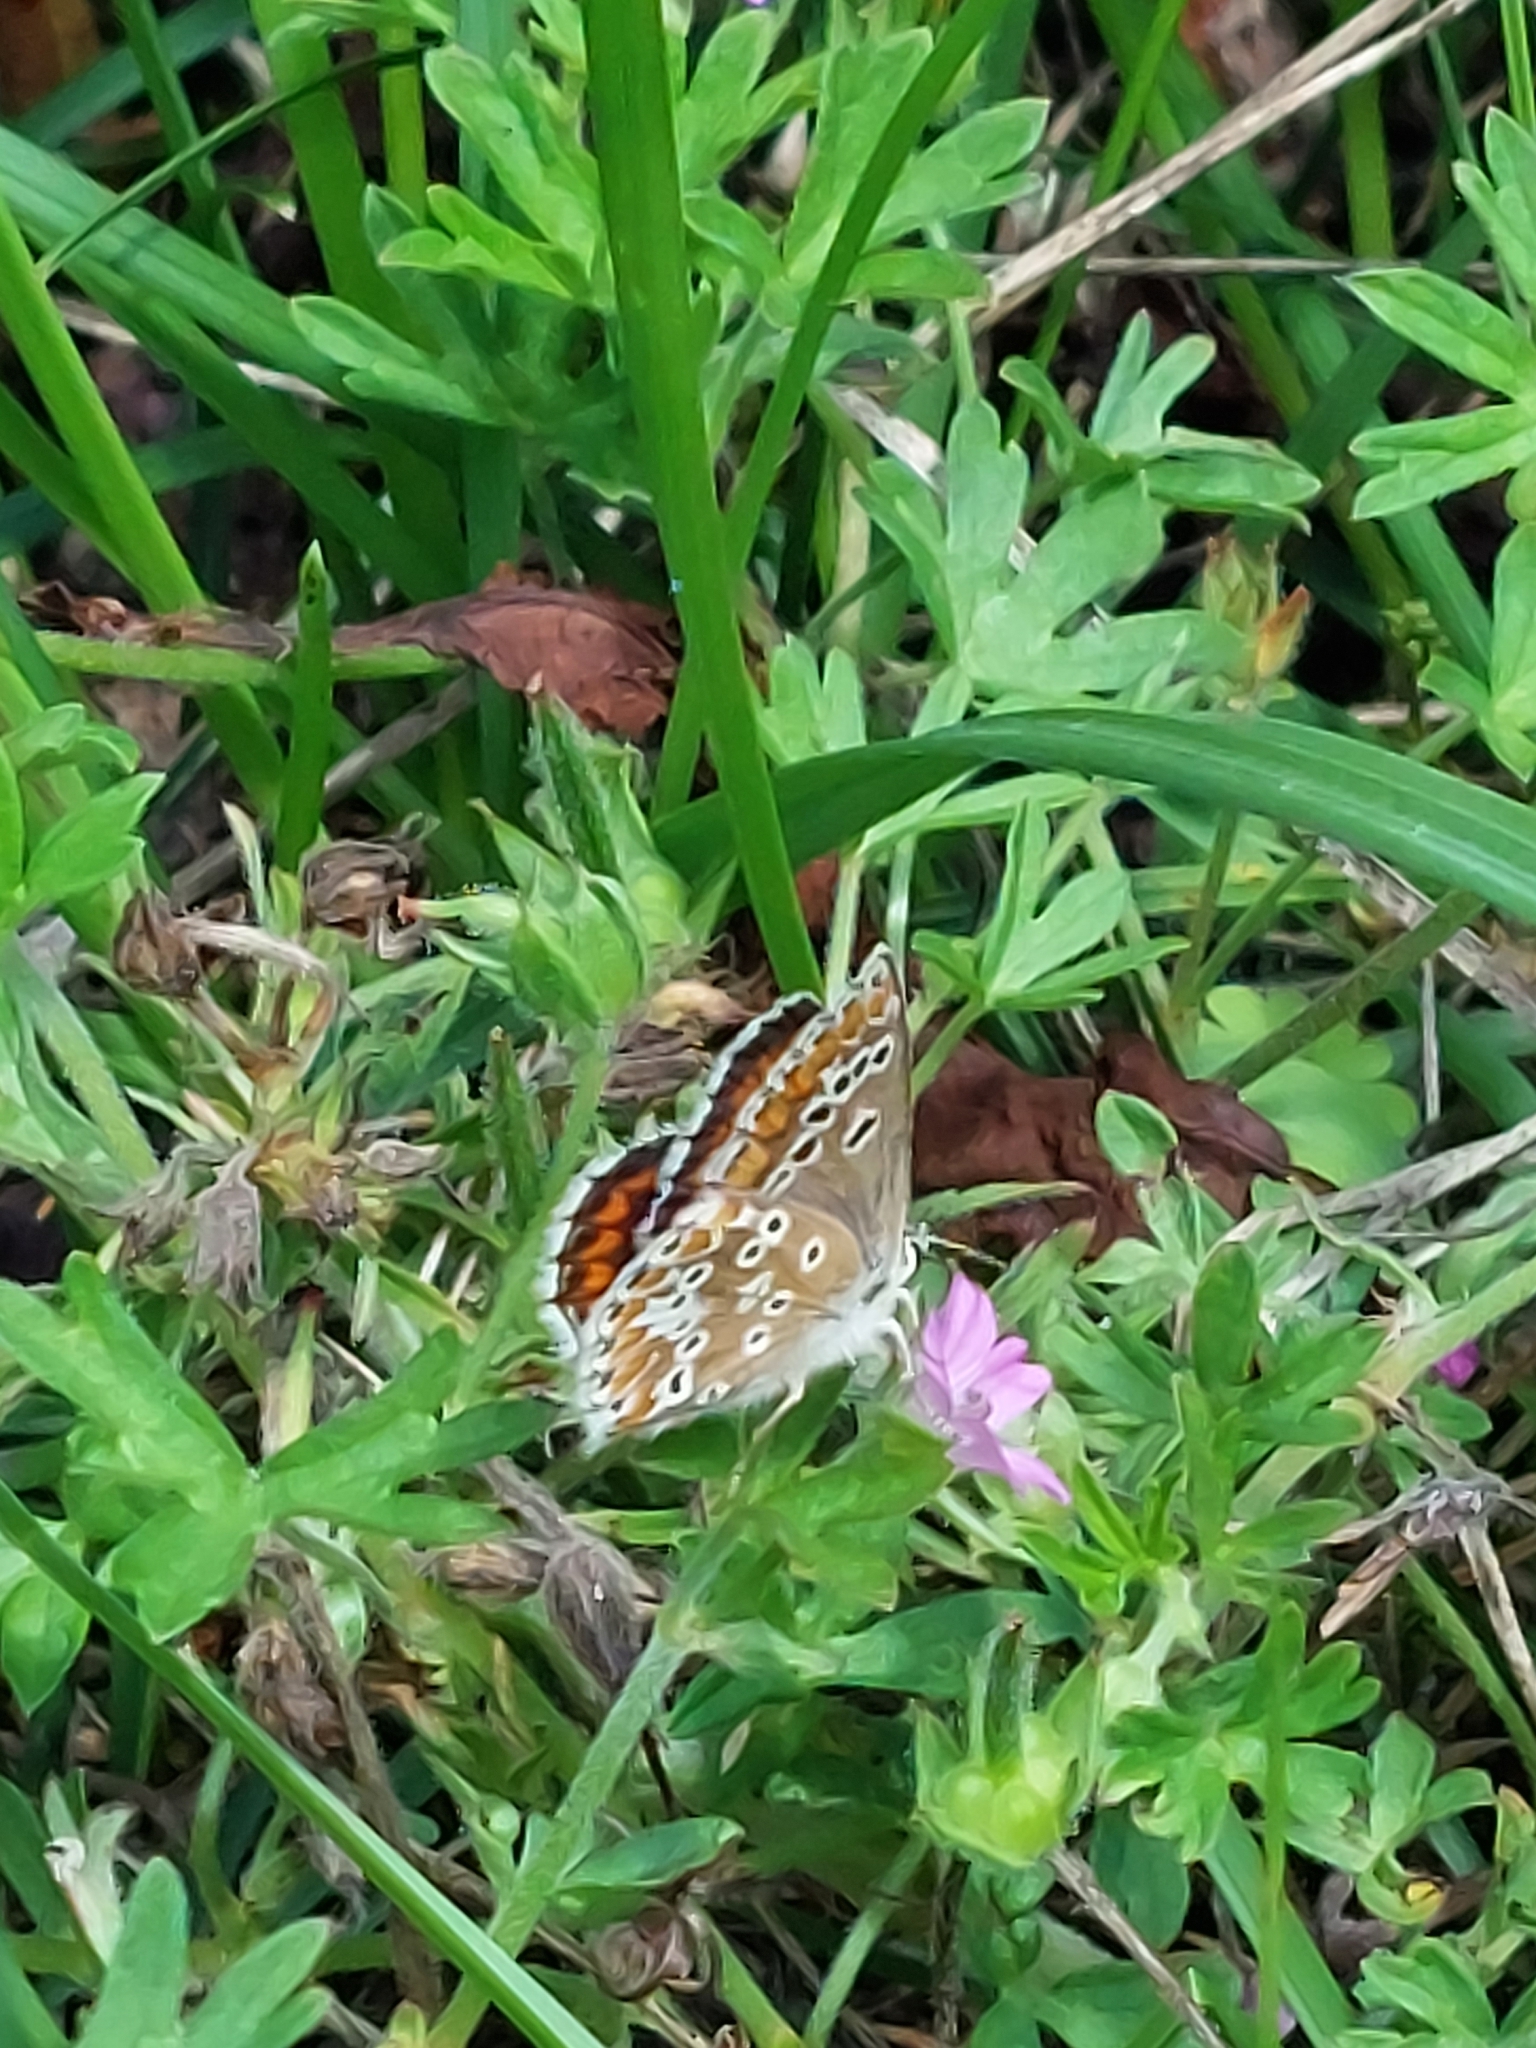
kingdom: Animalia
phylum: Arthropoda
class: Insecta
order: Lepidoptera
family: Lycaenidae
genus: Aricia
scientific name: Aricia agestis
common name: Brown argus
